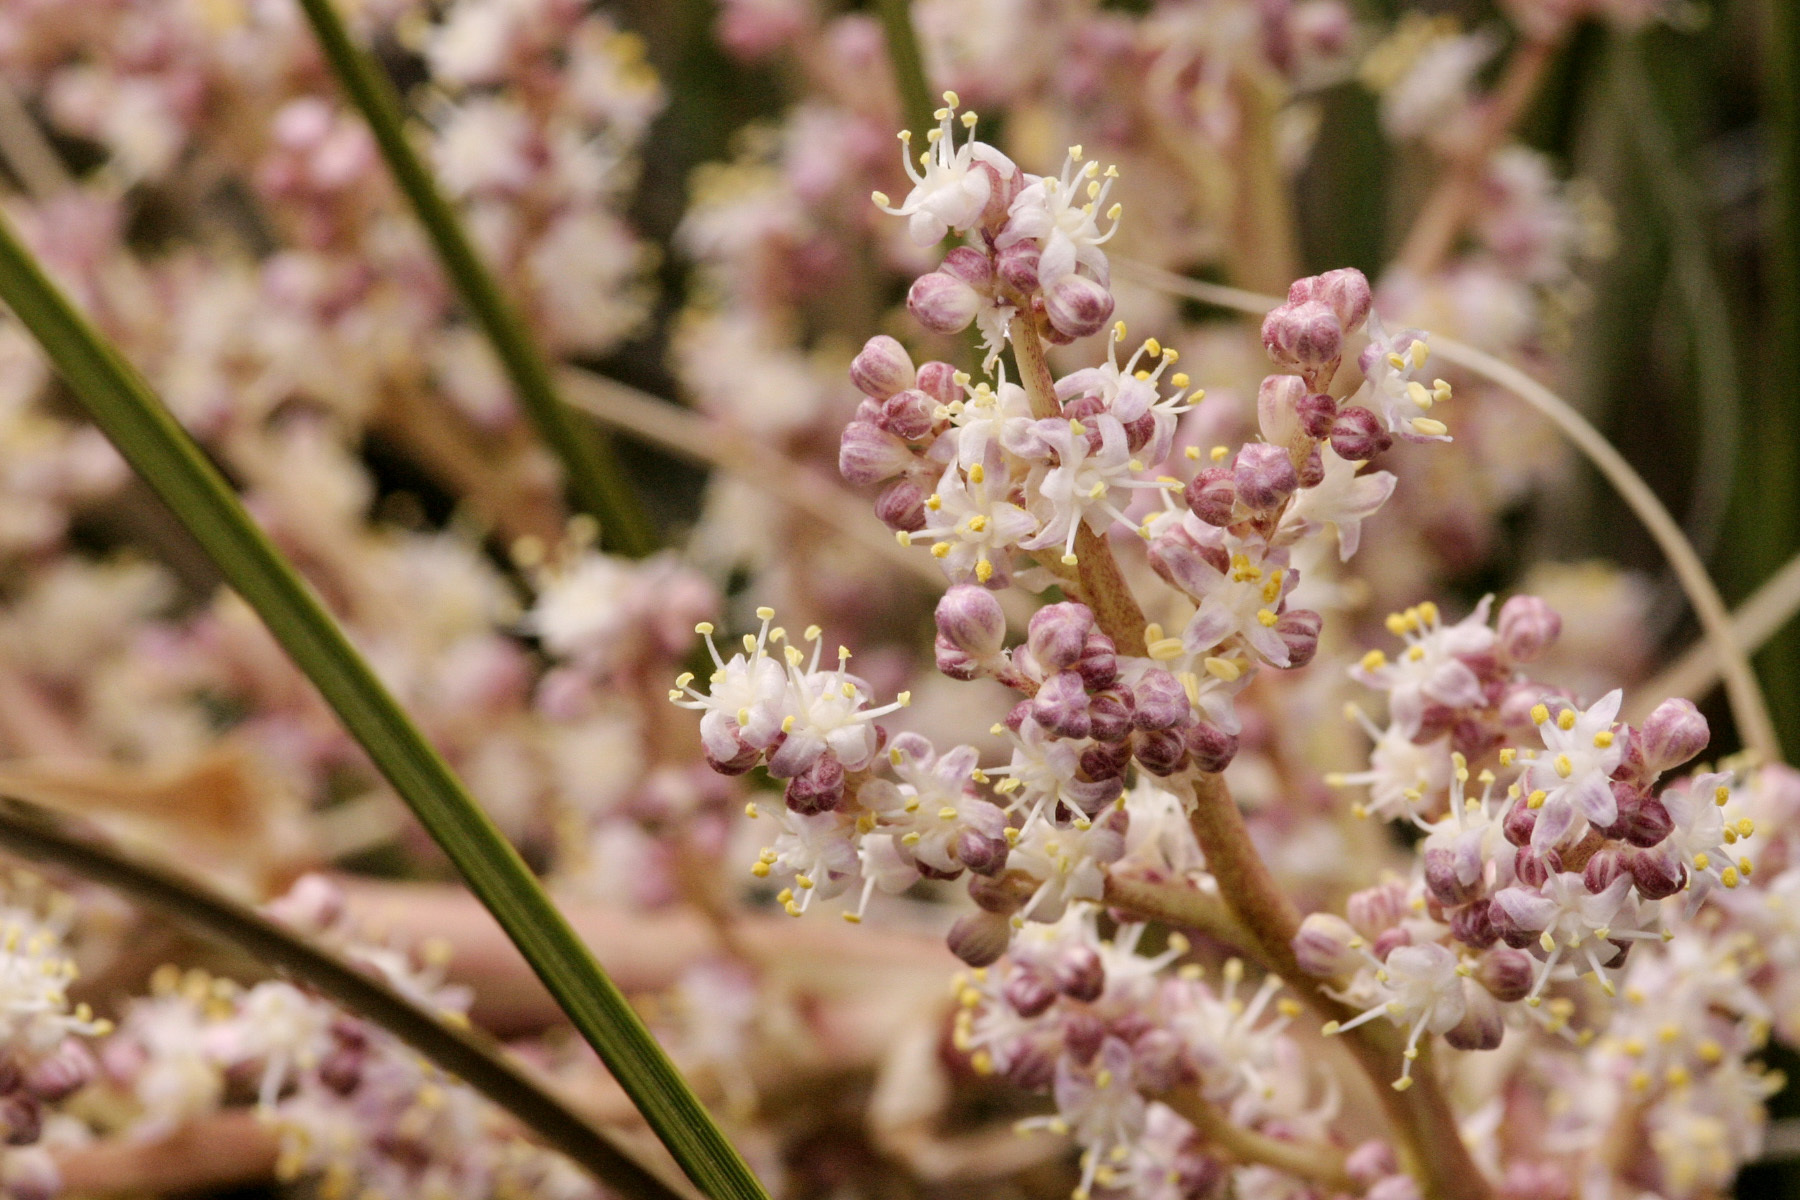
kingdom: Plantae
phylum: Tracheophyta
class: Liliopsida
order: Asparagales
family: Asparagaceae
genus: Nolina
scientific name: Nolina micrantha
